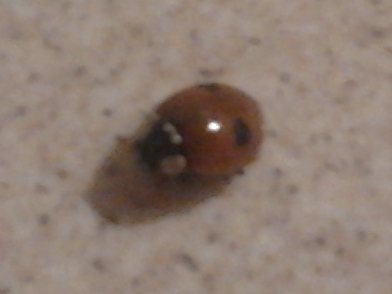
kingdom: Animalia
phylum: Arthropoda
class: Insecta
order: Coleoptera
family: Coccinellidae
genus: Adalia
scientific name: Adalia bipunctata
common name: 2-spot ladybird
